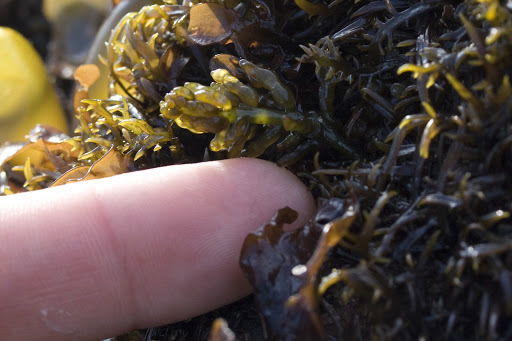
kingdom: Plantae
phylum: Rhodophyta
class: Florideophyceae
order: Rhodymeniales
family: Champiaceae
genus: Neogastroclonium
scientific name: Neogastroclonium subarticulatum
